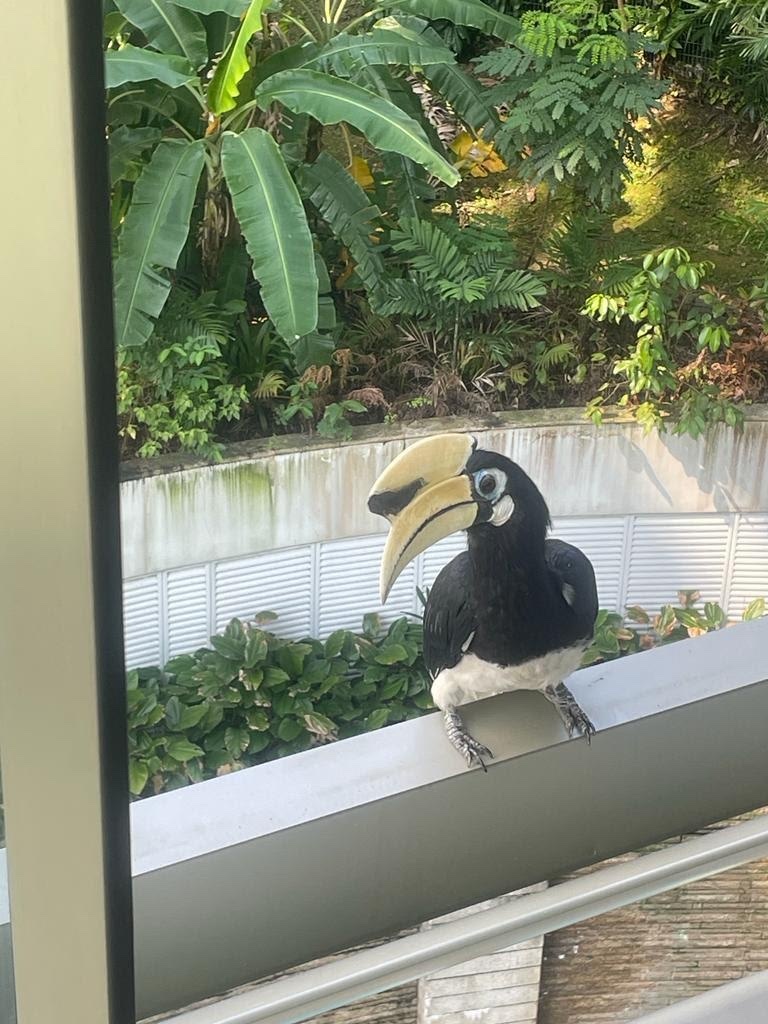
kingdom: Animalia
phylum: Chordata
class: Aves
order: Bucerotiformes
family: Bucerotidae
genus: Anthracoceros
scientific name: Anthracoceros albirostris
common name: Oriental pied-hornbill
